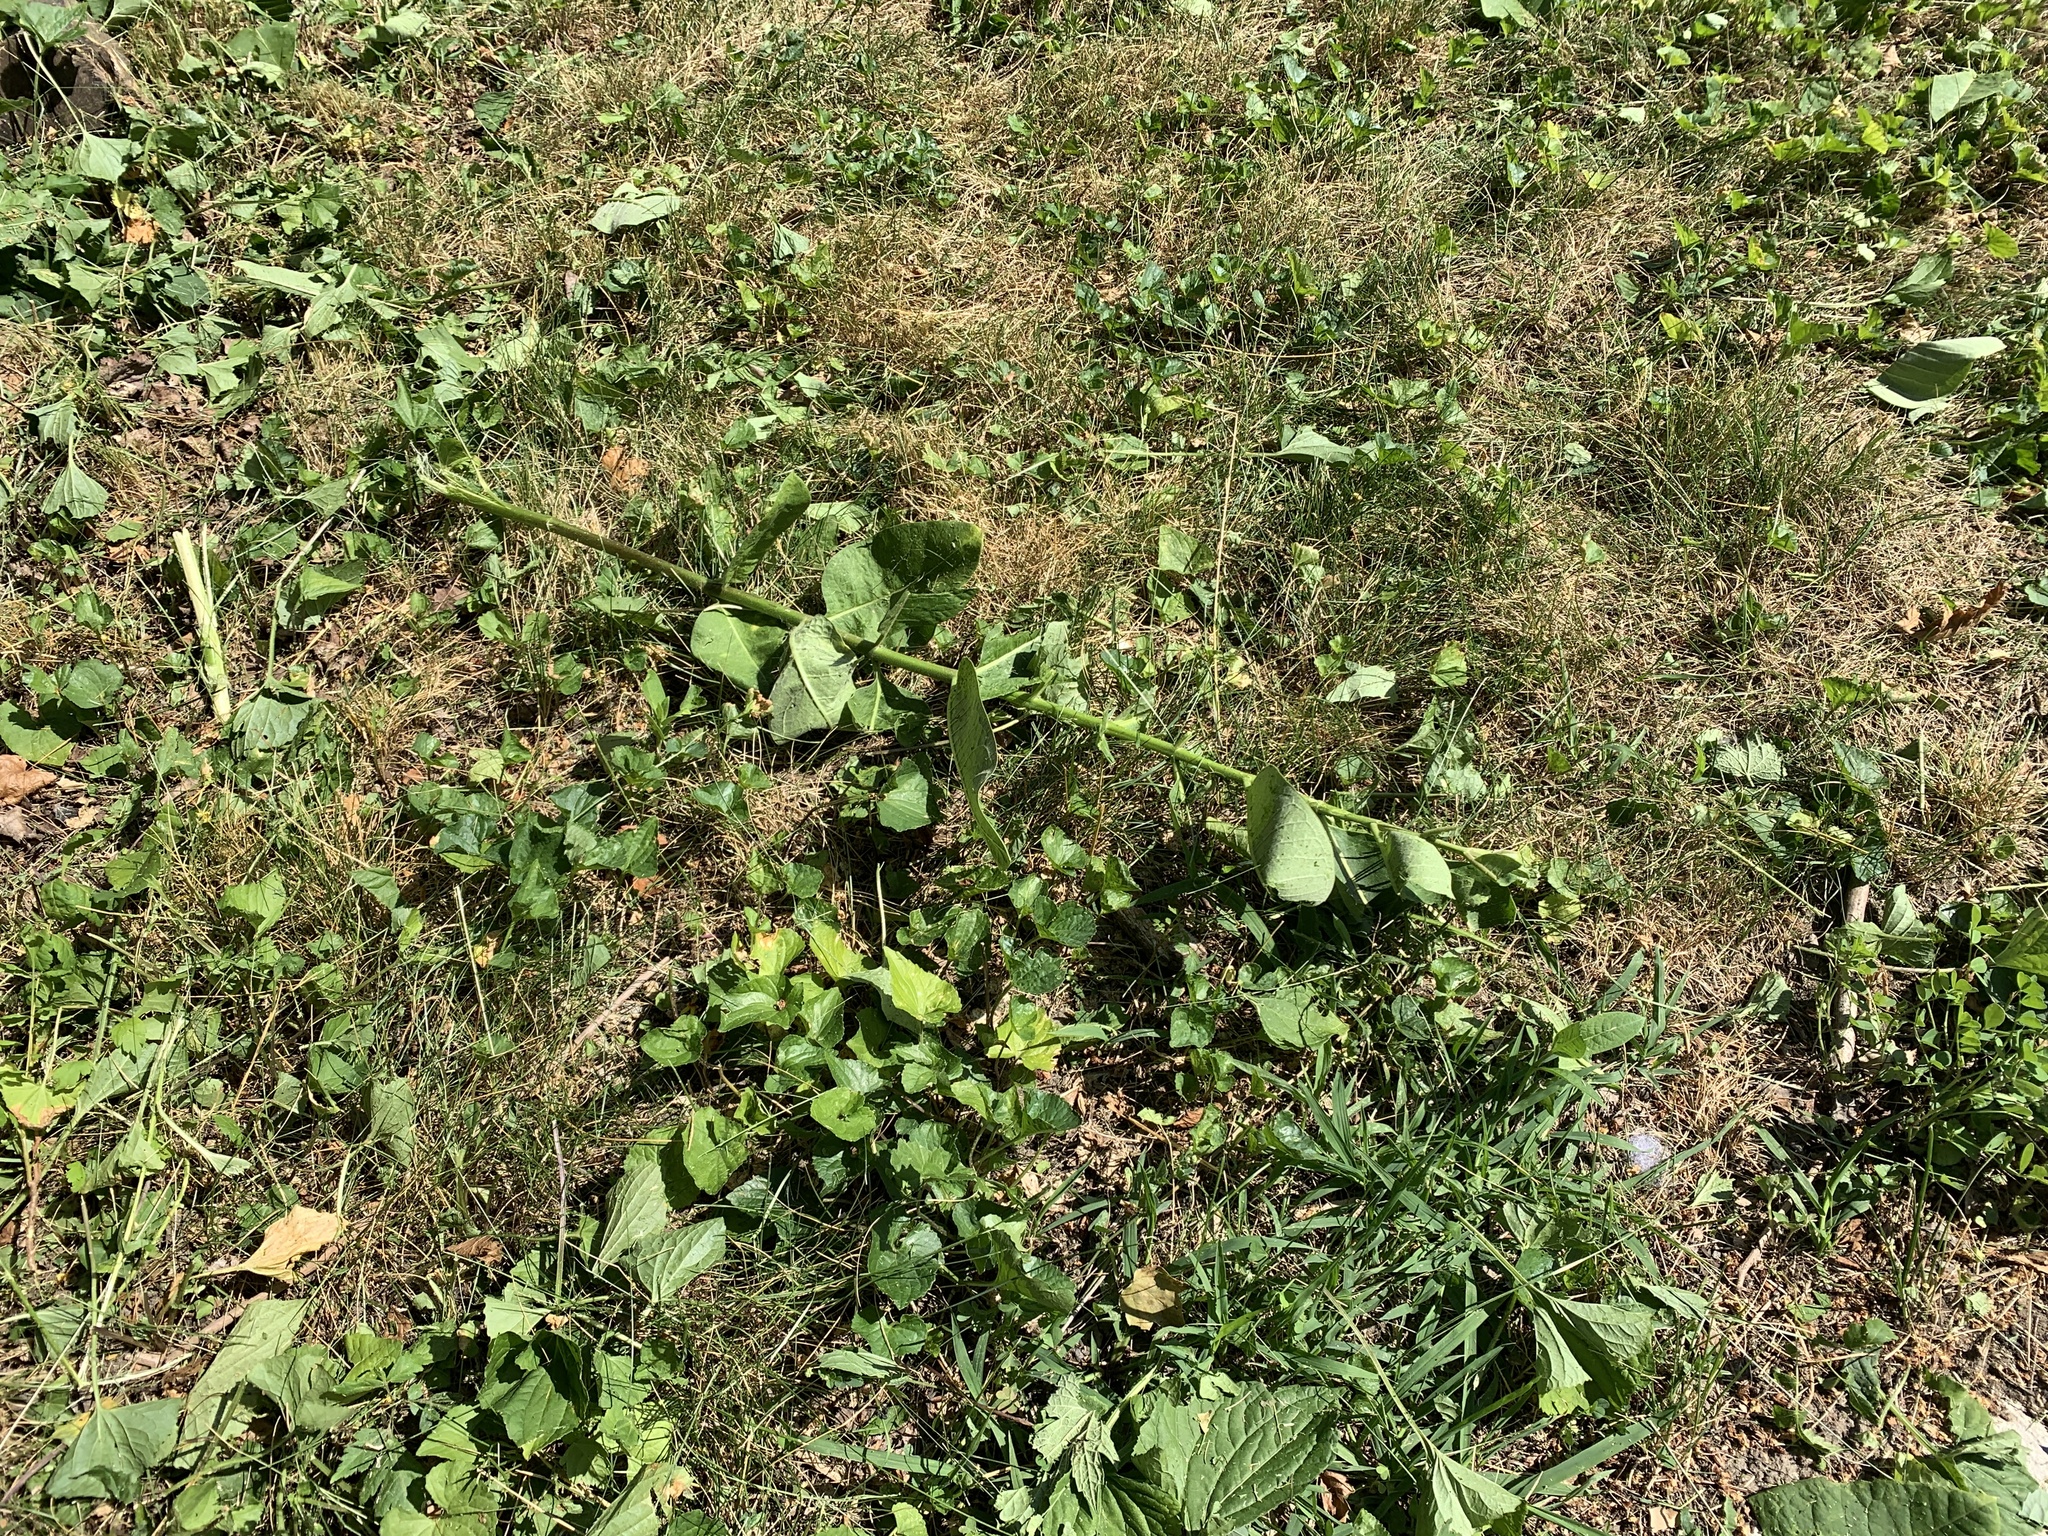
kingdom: Plantae
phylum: Tracheophyta
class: Magnoliopsida
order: Gentianales
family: Apocynaceae
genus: Asclepias
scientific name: Asclepias syriaca
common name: Common milkweed
